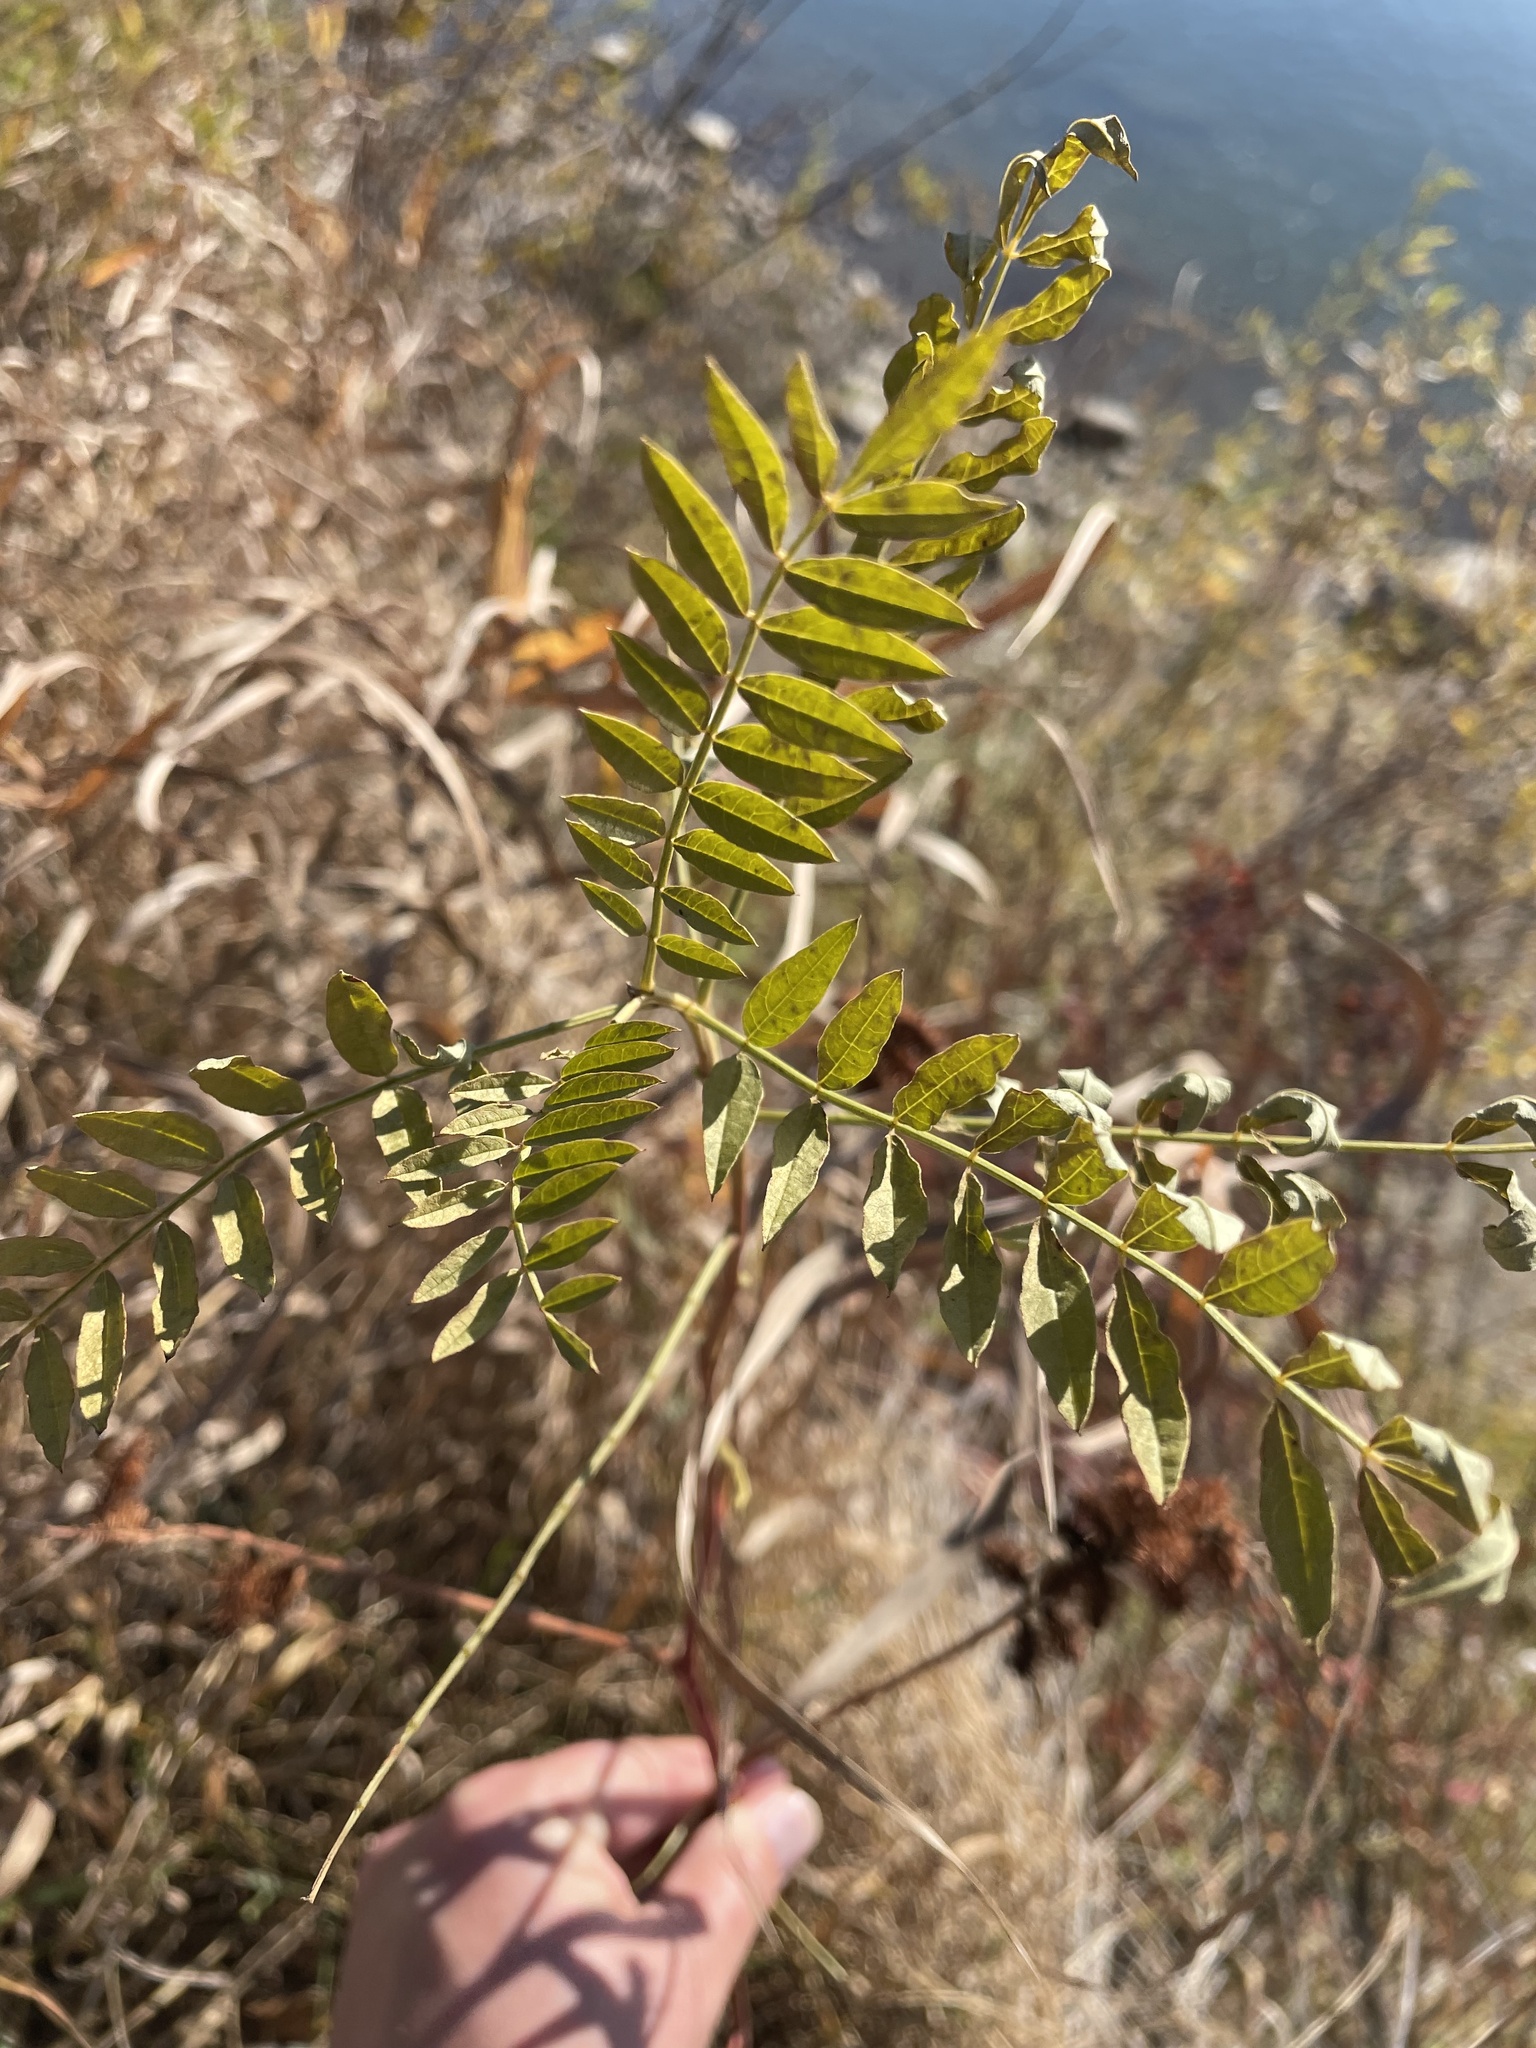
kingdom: Plantae
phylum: Tracheophyta
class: Magnoliopsida
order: Fabales
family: Fabaceae
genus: Glycyrrhiza
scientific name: Glycyrrhiza lepidota
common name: American liquorice
